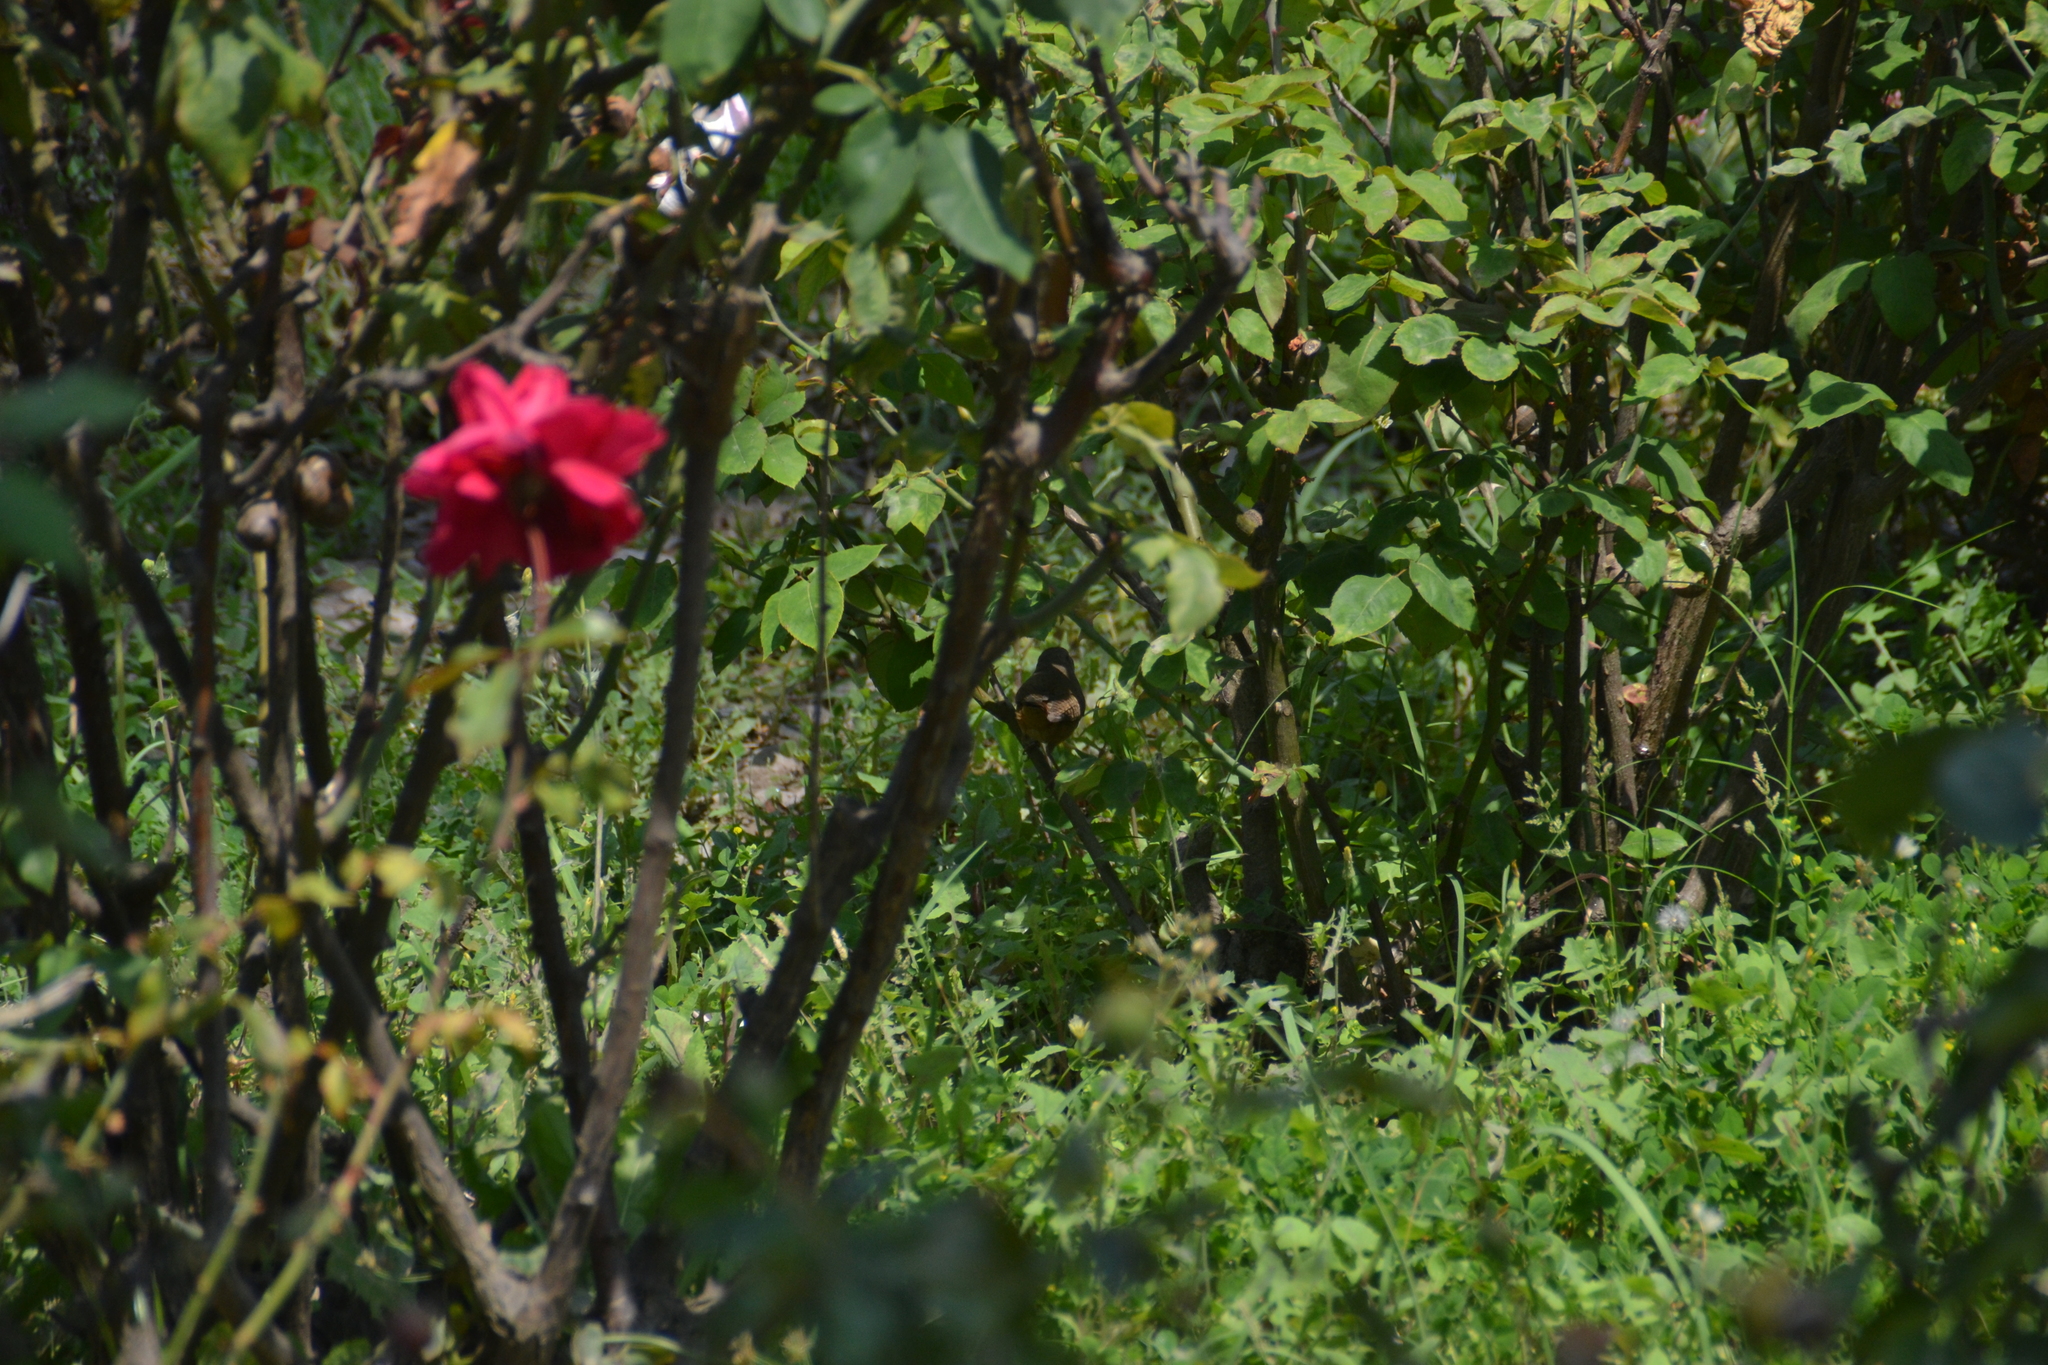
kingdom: Animalia
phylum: Chordata
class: Aves
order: Passeriformes
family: Troglodytidae
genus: Troglodytes
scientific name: Troglodytes aedon
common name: House wren
